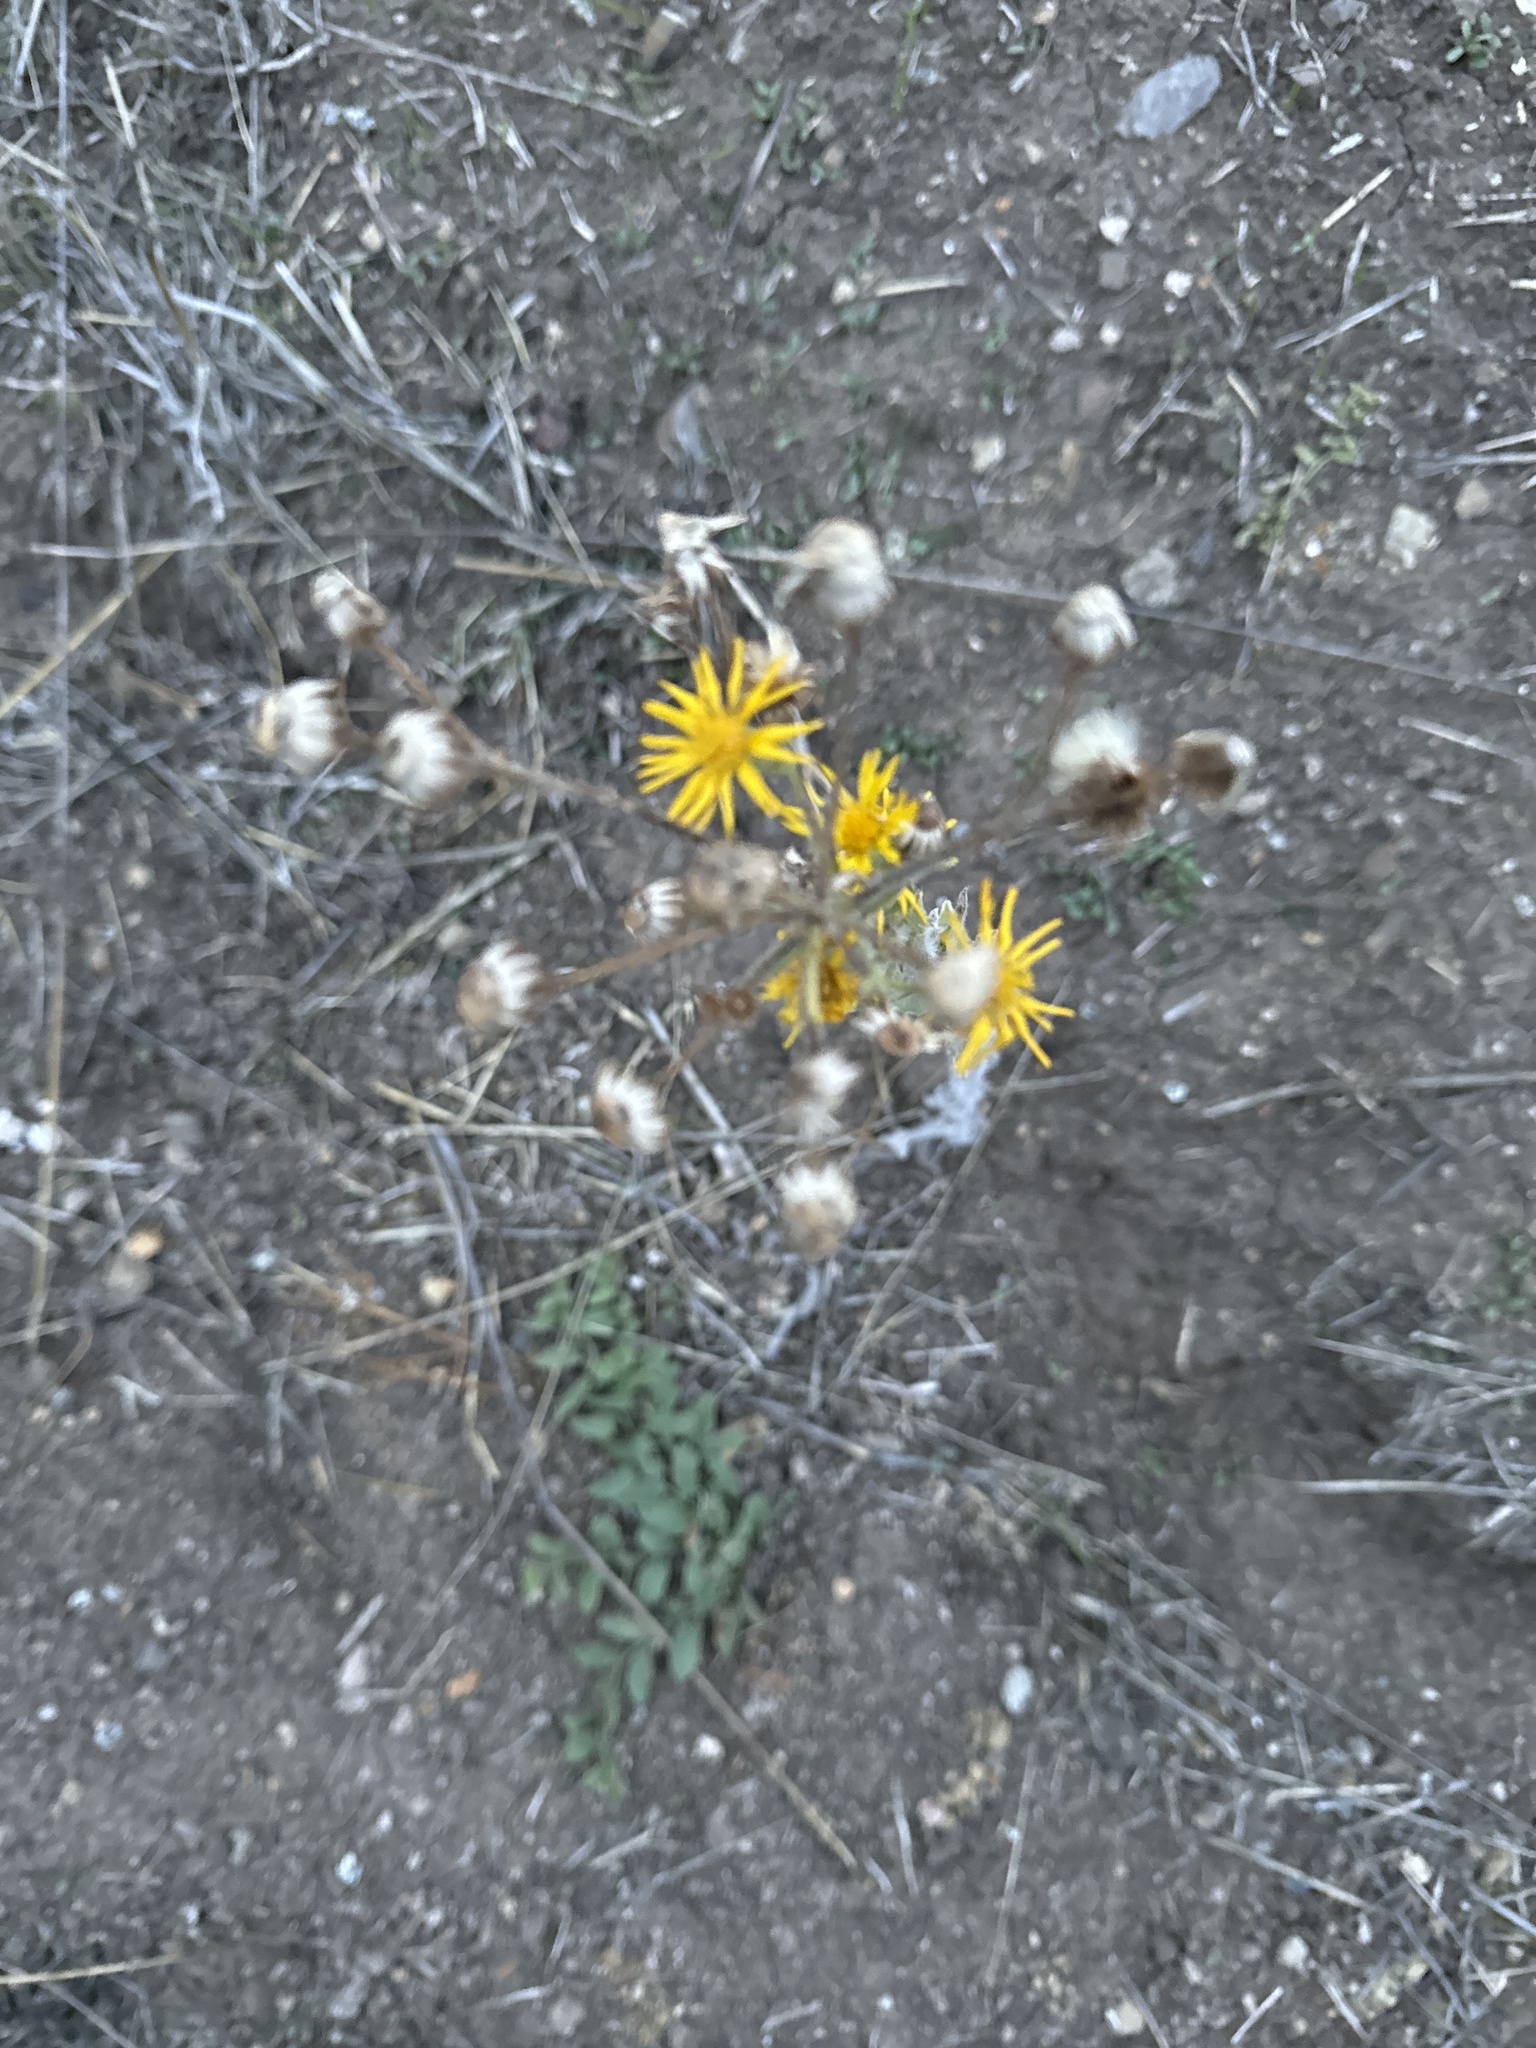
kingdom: Plantae
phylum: Tracheophyta
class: Magnoliopsida
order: Asterales
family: Asteraceae
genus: Heterotheca
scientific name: Heterotheca grandiflora
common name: Telegraphweed
